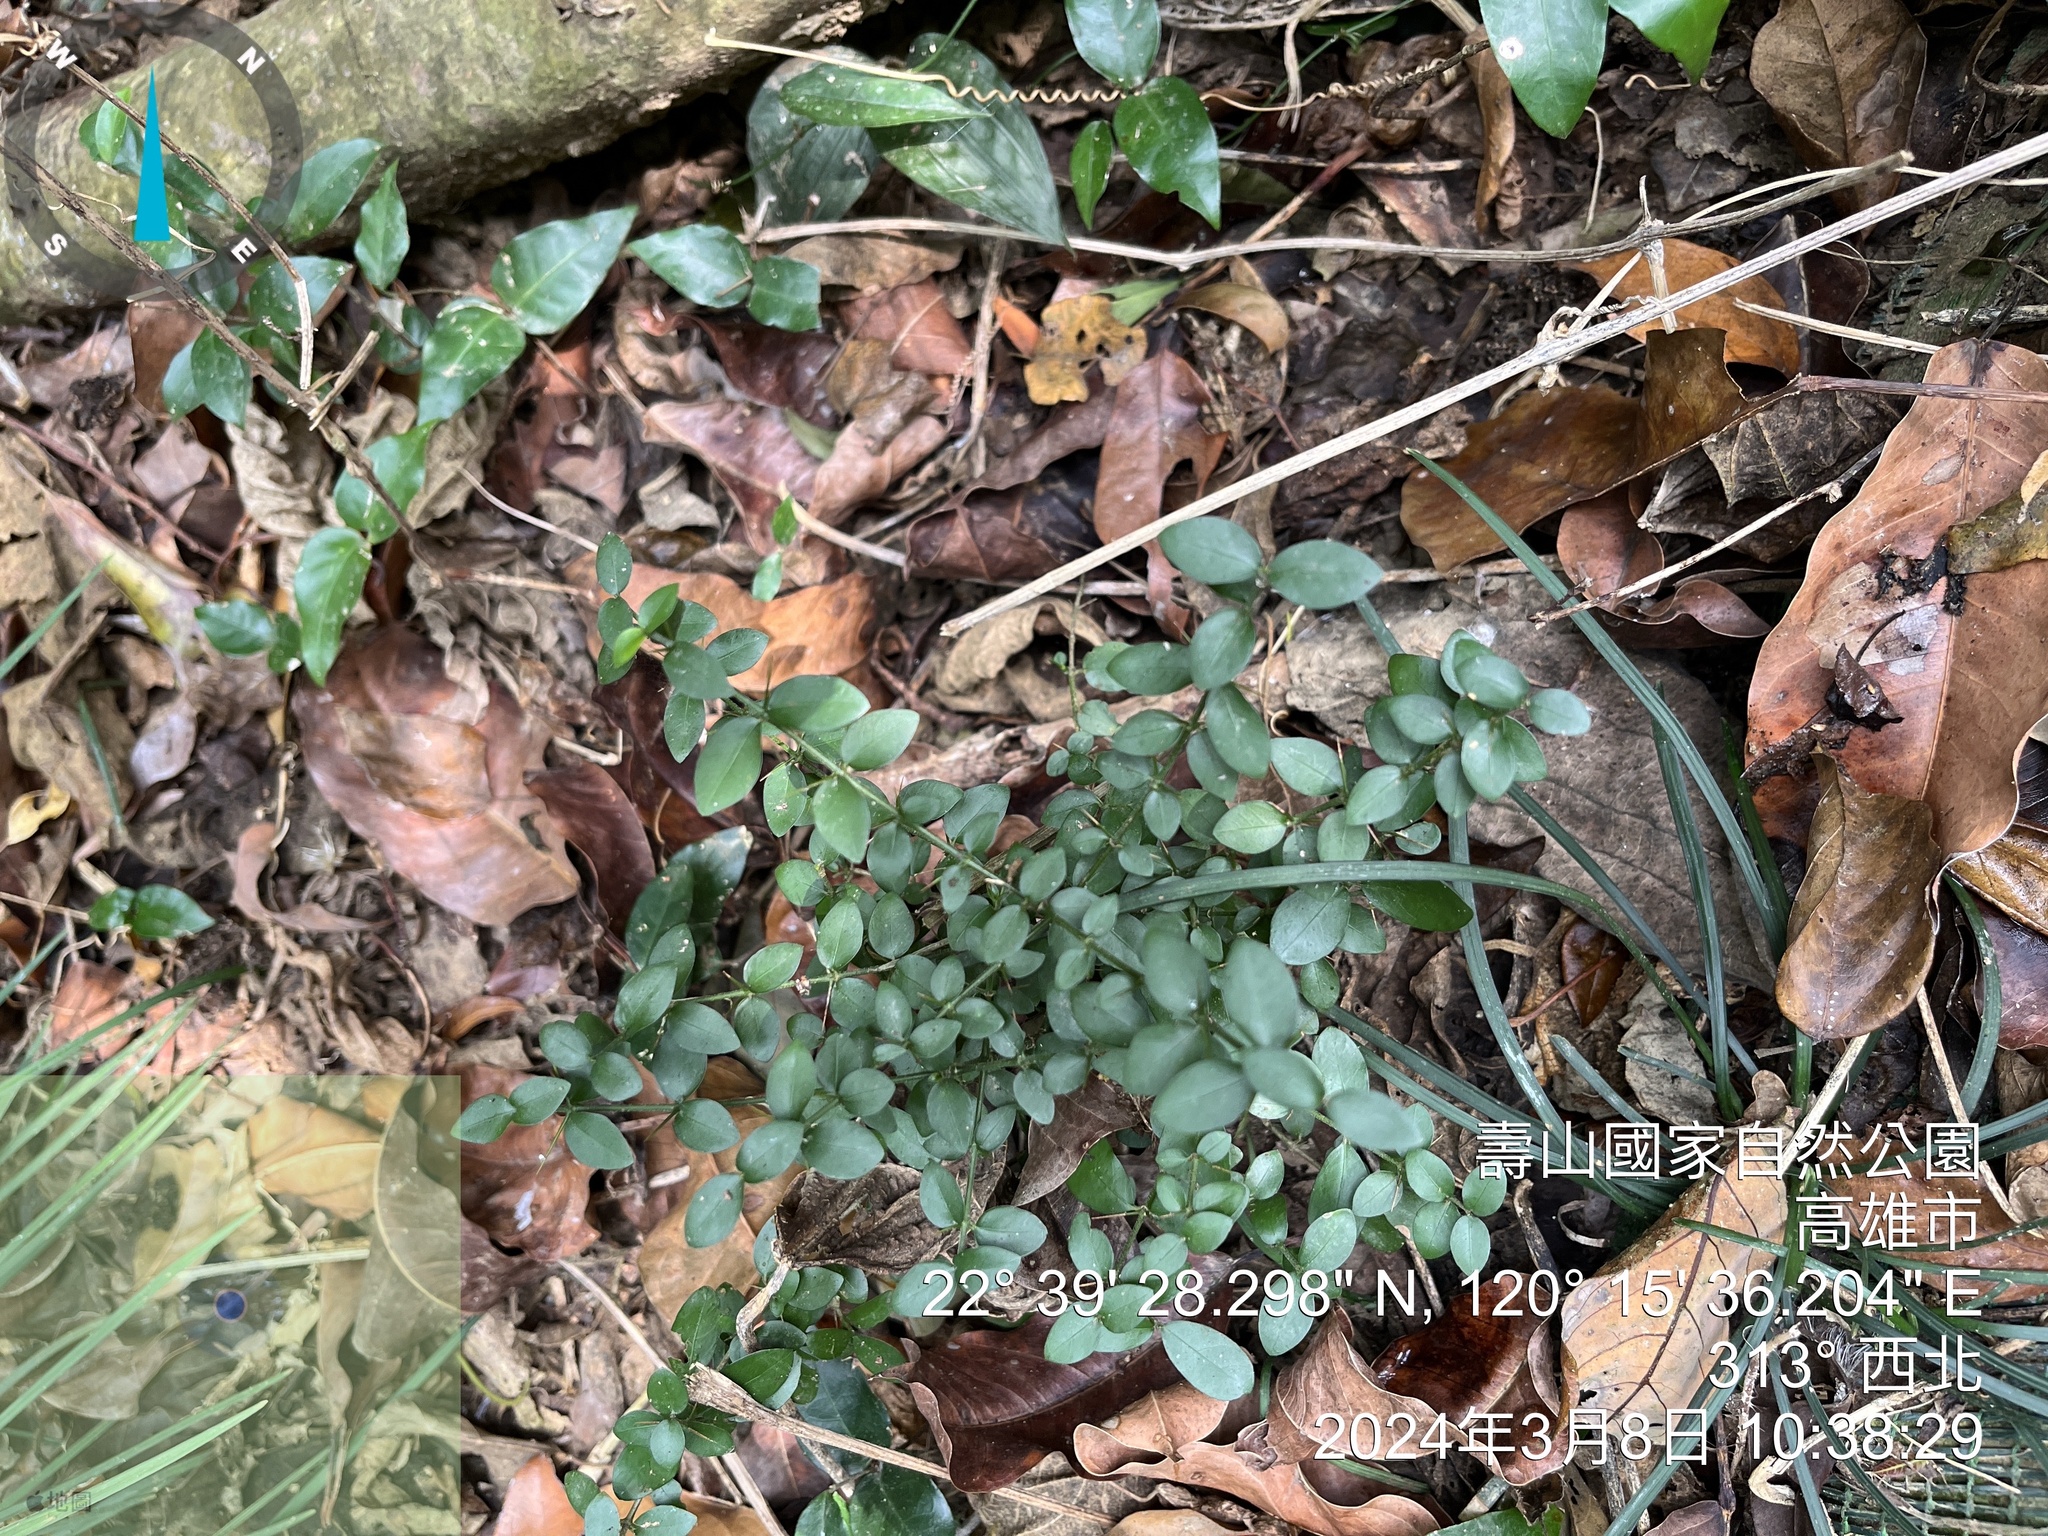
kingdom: Plantae
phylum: Tracheophyta
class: Magnoliopsida
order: Gentianales
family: Rubiaceae
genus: Benkara
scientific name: Benkara sinensis
